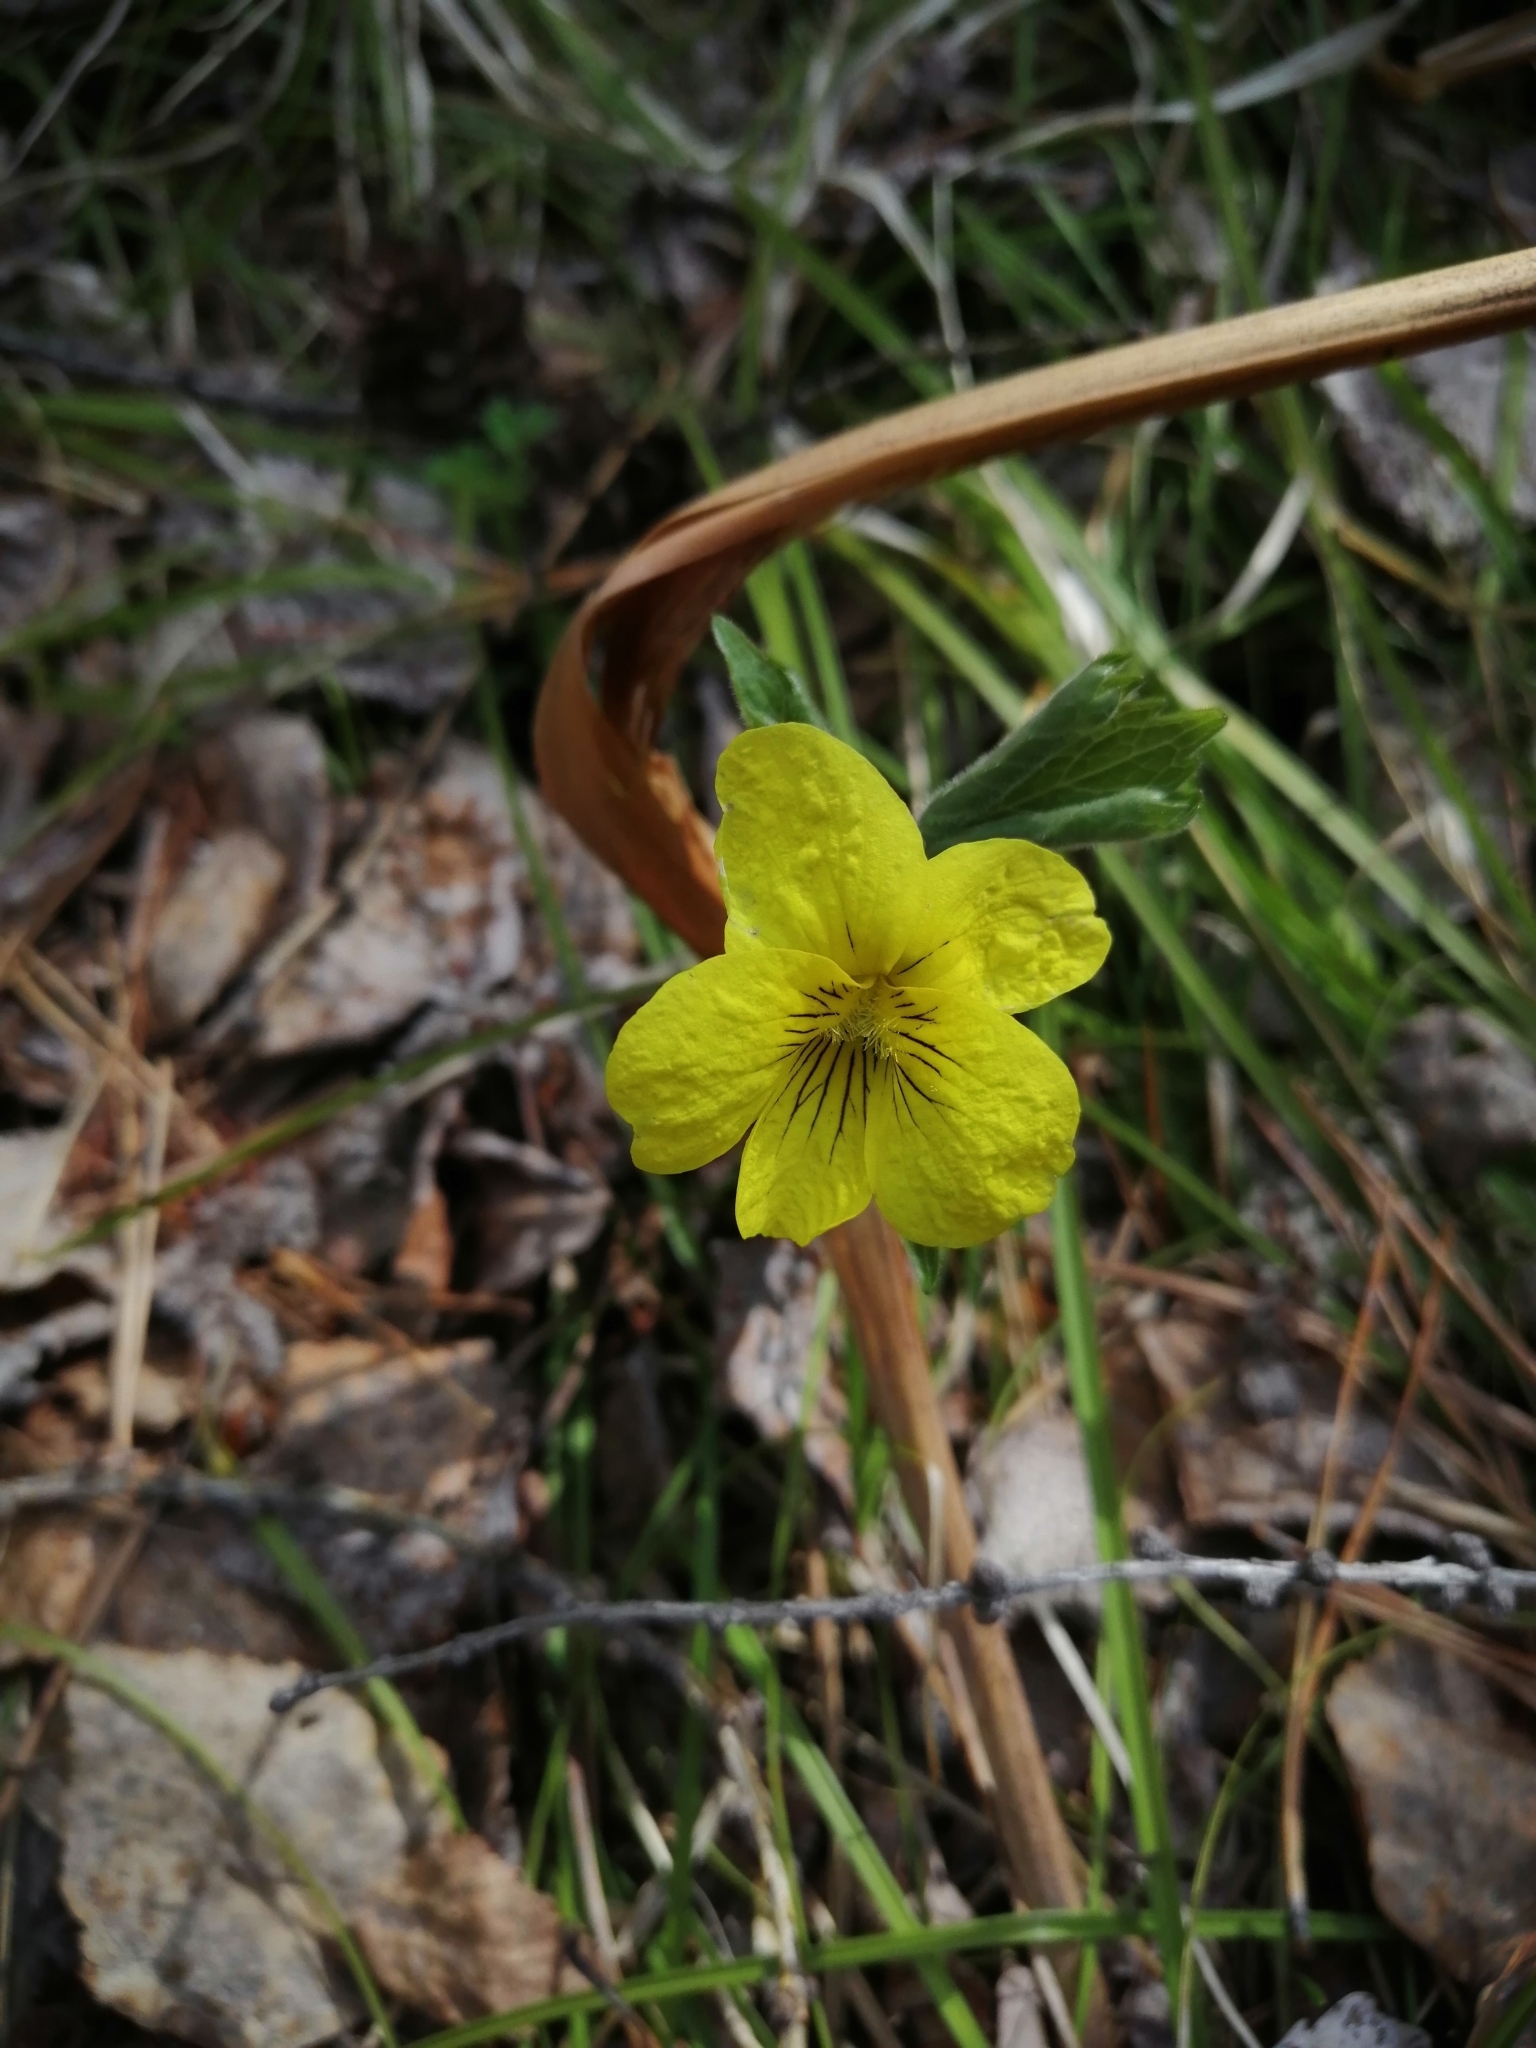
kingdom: Plantae
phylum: Tracheophyta
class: Magnoliopsida
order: Malpighiales
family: Violaceae
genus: Viola
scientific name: Viola uniflora
